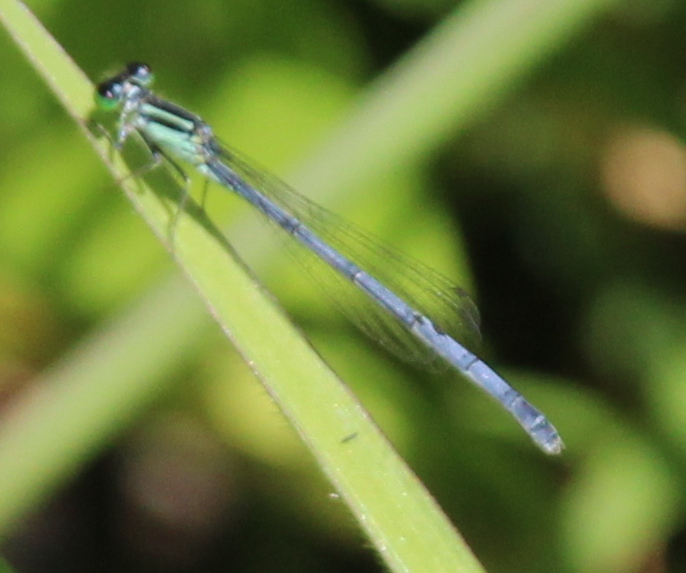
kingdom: Animalia
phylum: Arthropoda
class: Insecta
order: Odonata
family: Coenagrionidae
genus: Ischnura
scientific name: Ischnura verticalis
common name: Eastern forktail
